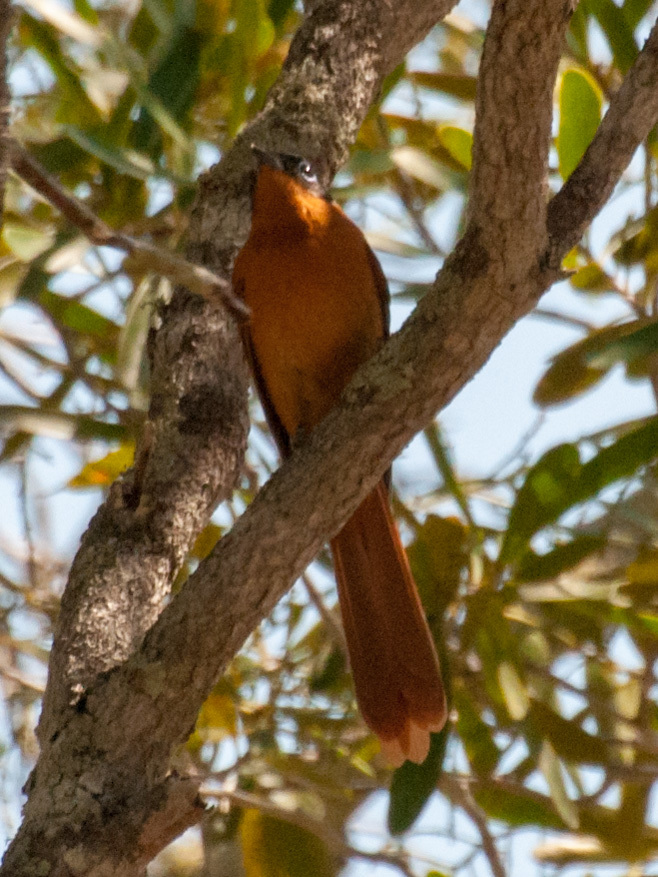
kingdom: Animalia
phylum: Chordata
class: Aves
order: Passeriformes
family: Monarchidae
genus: Terpsiphone
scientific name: Terpsiphone mutata
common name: Malagasy paradise flycatcher
